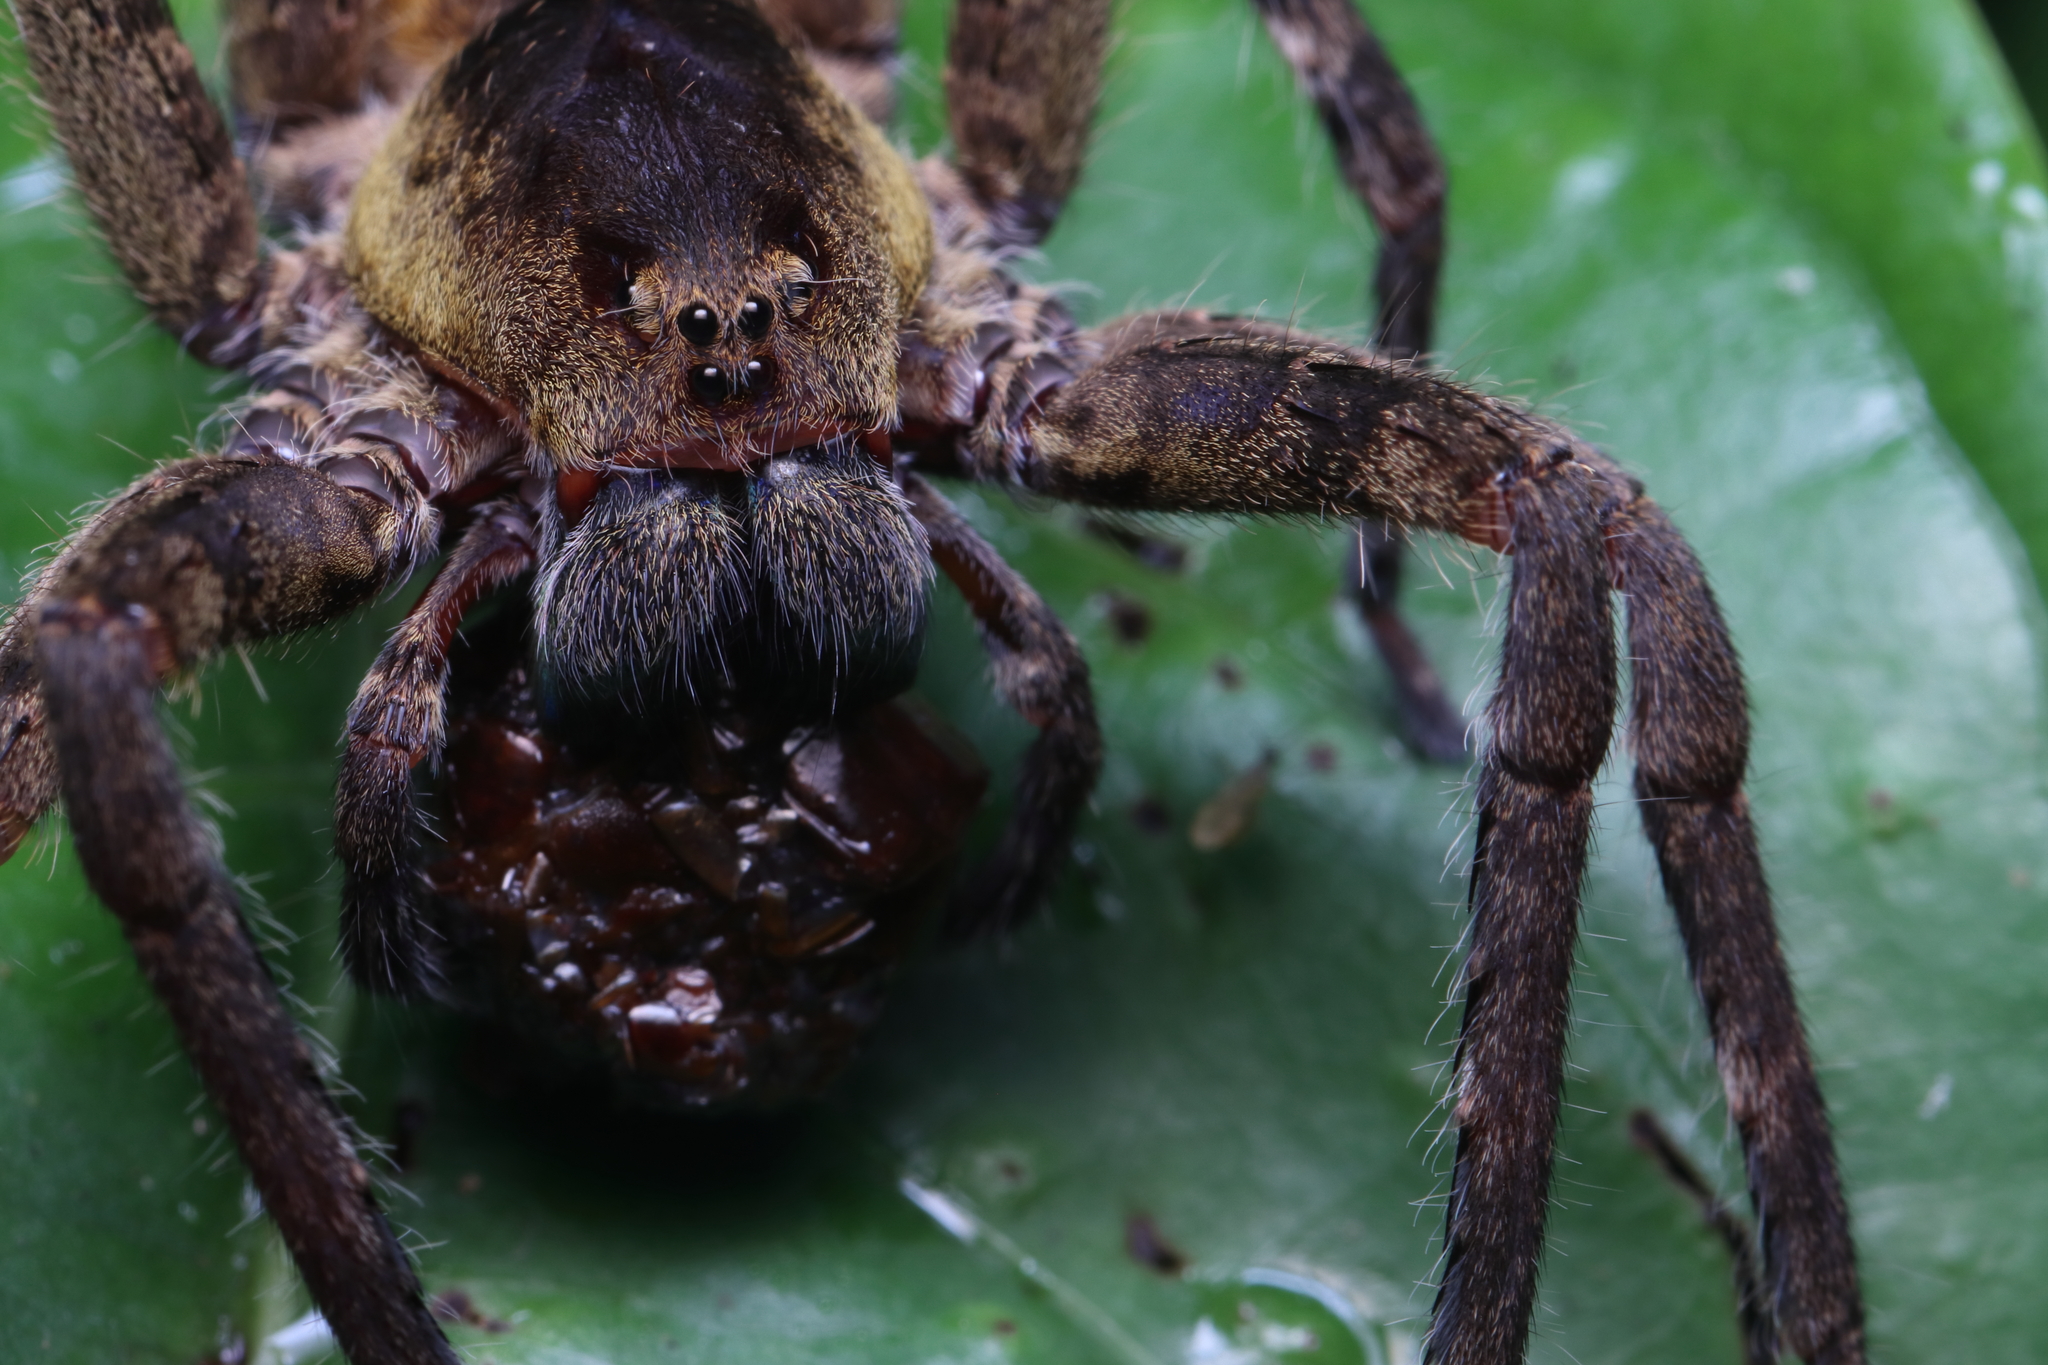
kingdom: Animalia
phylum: Arthropoda
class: Arachnida
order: Araneae
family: Ctenidae
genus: Ctenus
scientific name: Ctenus villasboasi
